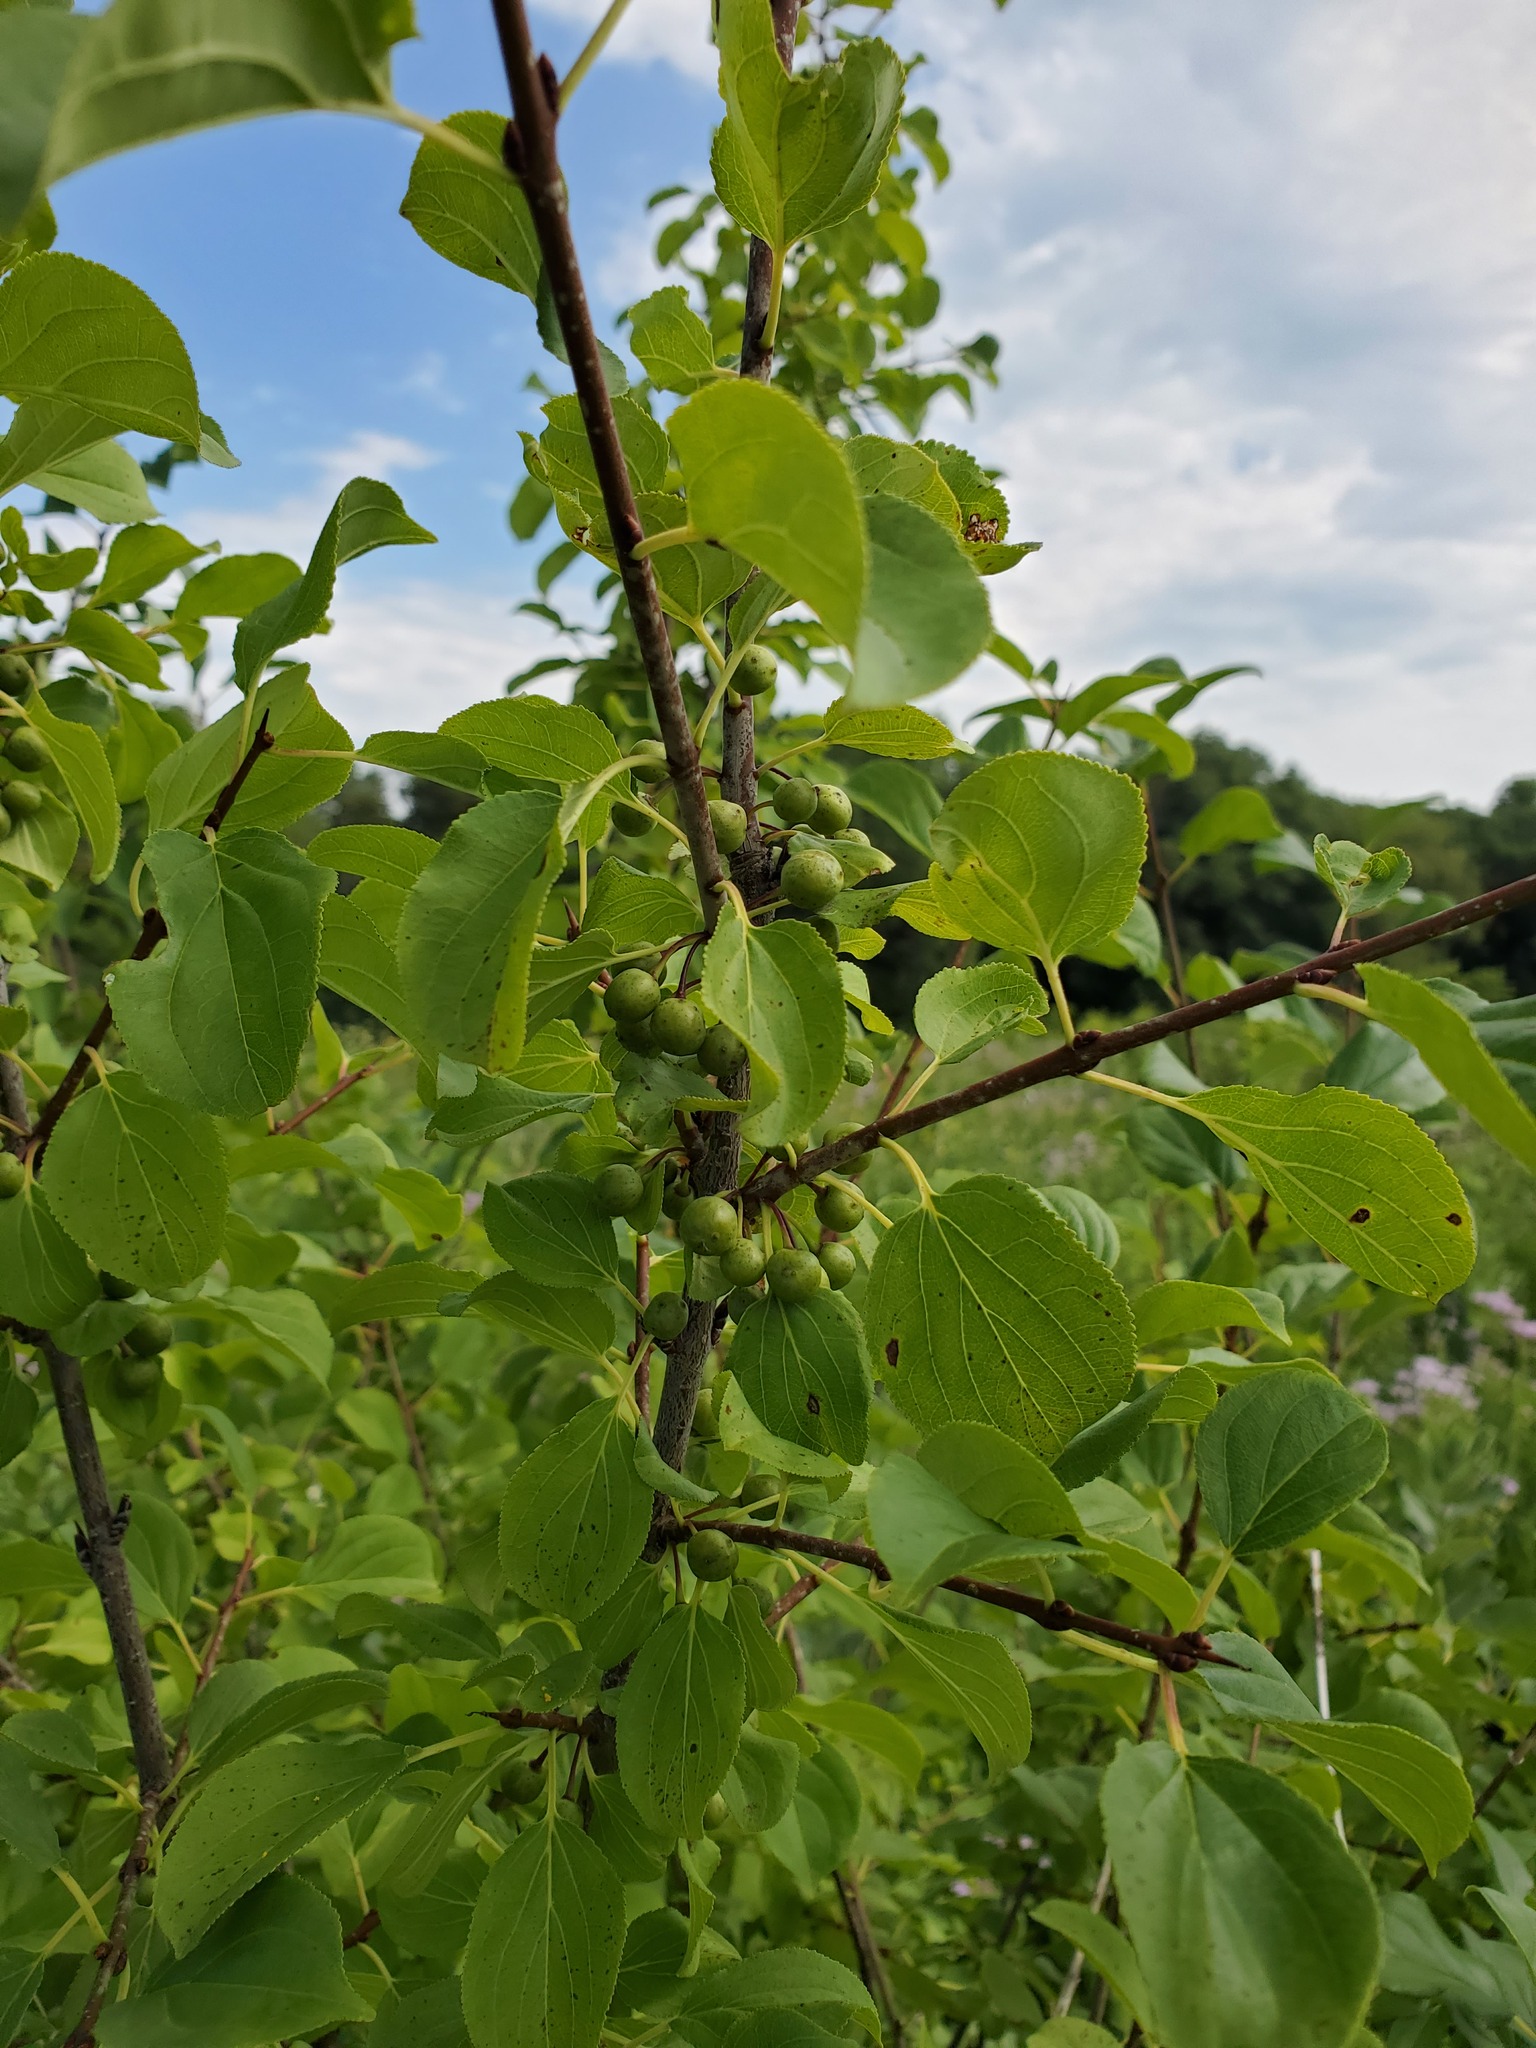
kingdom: Plantae
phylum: Tracheophyta
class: Magnoliopsida
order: Rosales
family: Rhamnaceae
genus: Rhamnus
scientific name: Rhamnus cathartica
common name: Common buckthorn
